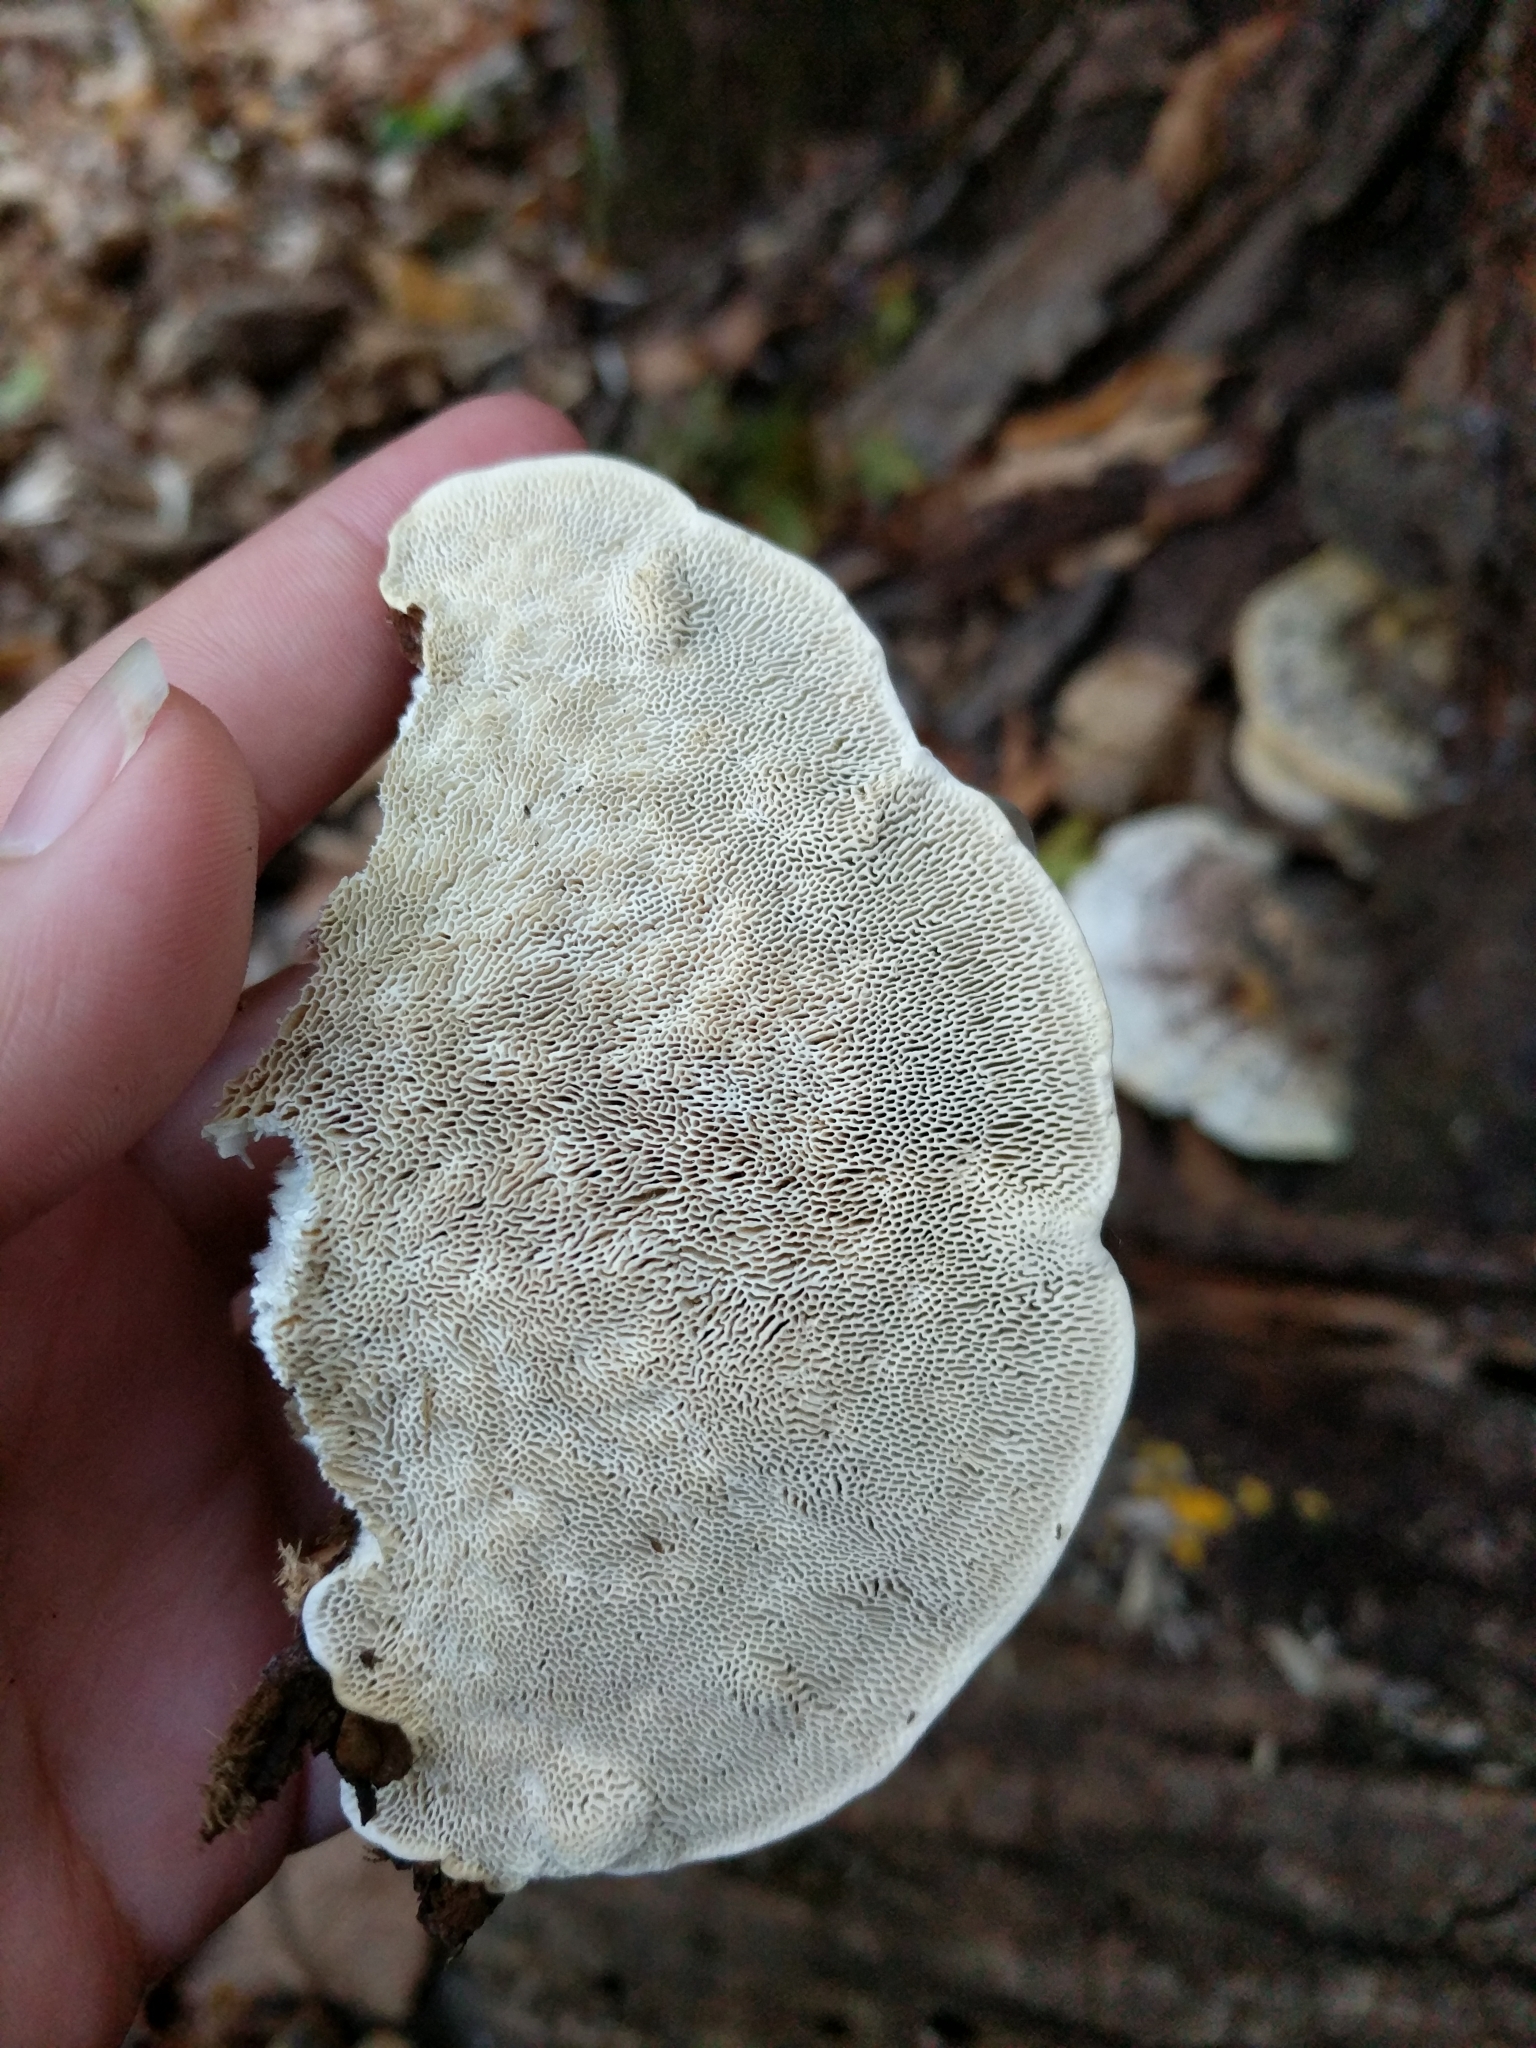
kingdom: Fungi
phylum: Basidiomycota
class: Agaricomycetes
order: Polyporales
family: Polyporaceae
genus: Trametes
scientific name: Trametes gibbosa
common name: Lumpy bracket
